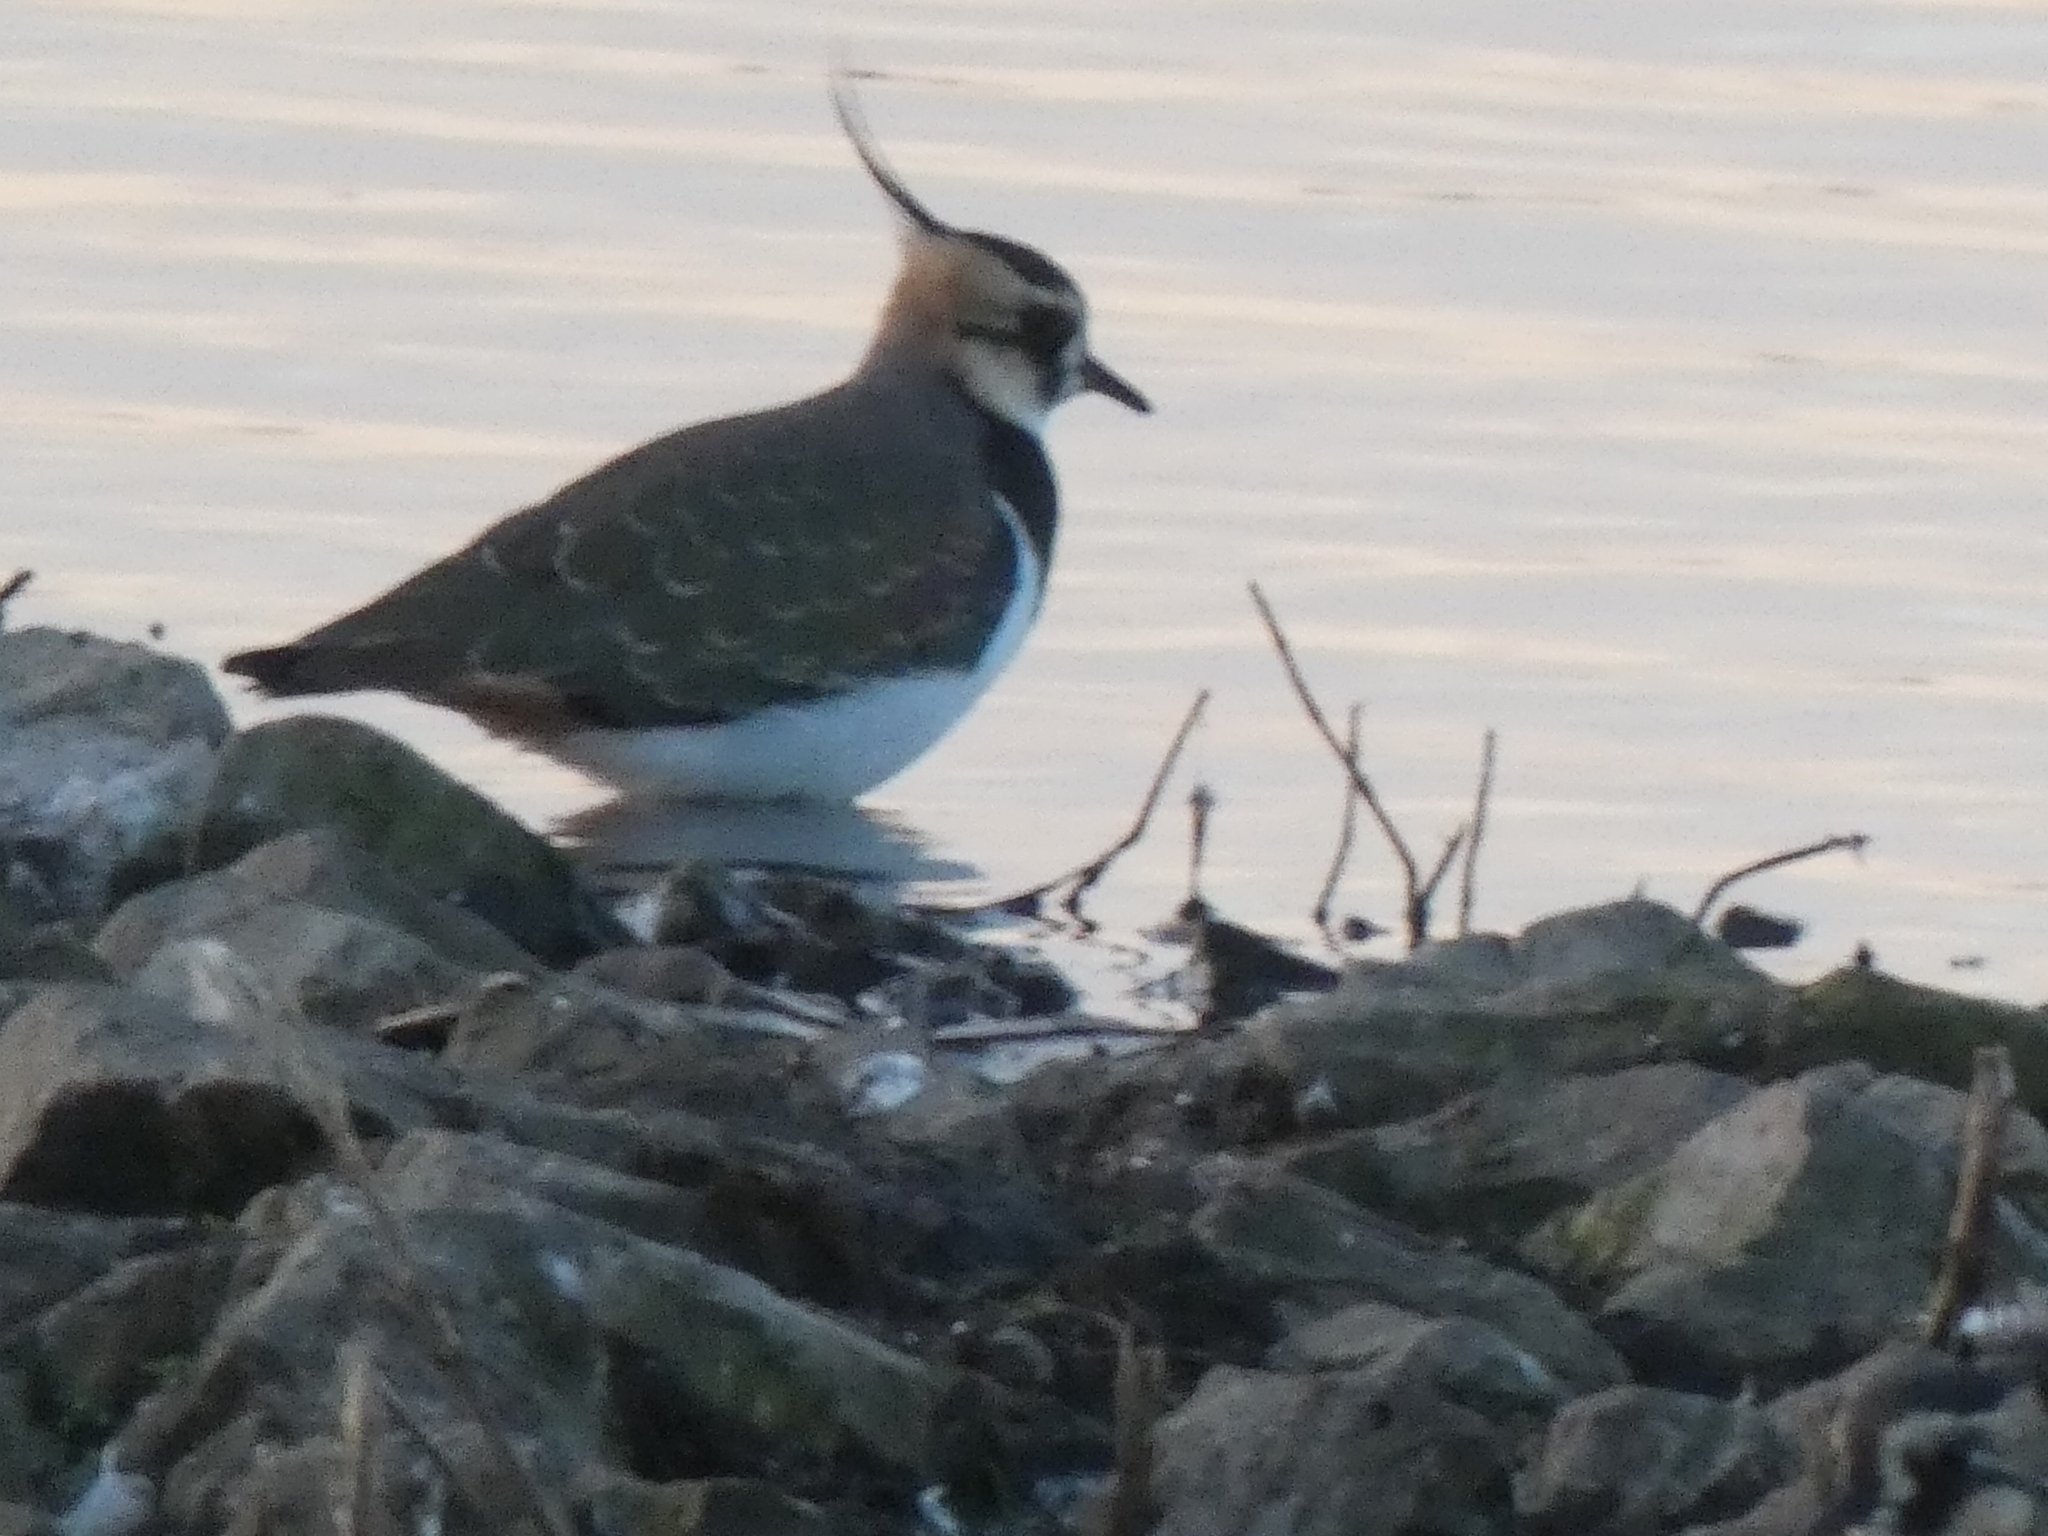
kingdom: Animalia
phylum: Chordata
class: Aves
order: Charadriiformes
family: Charadriidae
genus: Vanellus
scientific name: Vanellus vanellus
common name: Northern lapwing
